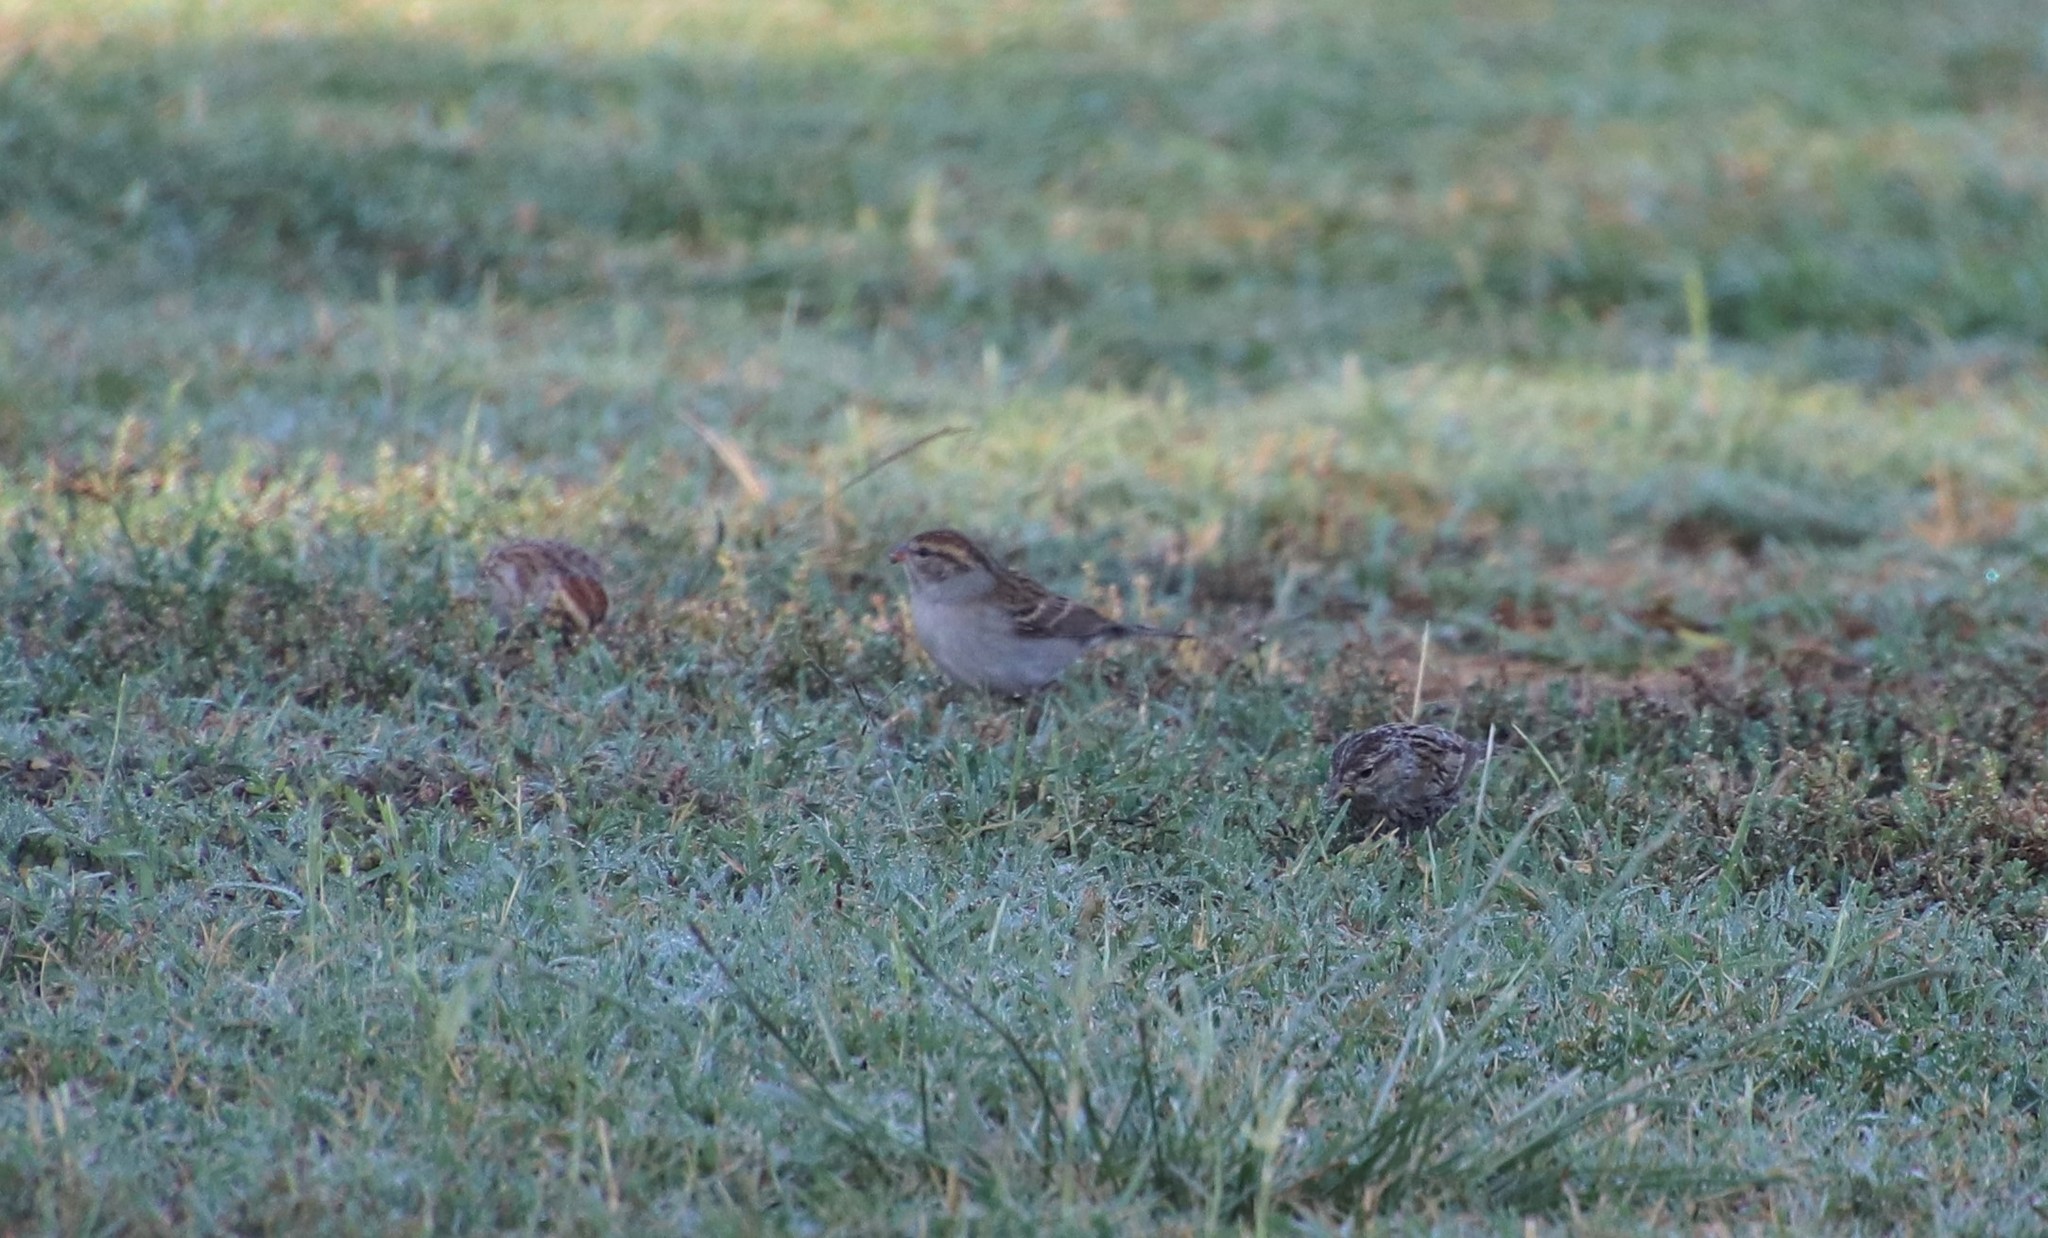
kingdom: Animalia
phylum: Chordata
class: Aves
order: Passeriformes
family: Passerellidae
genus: Spizella
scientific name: Spizella passerina
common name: Chipping sparrow
